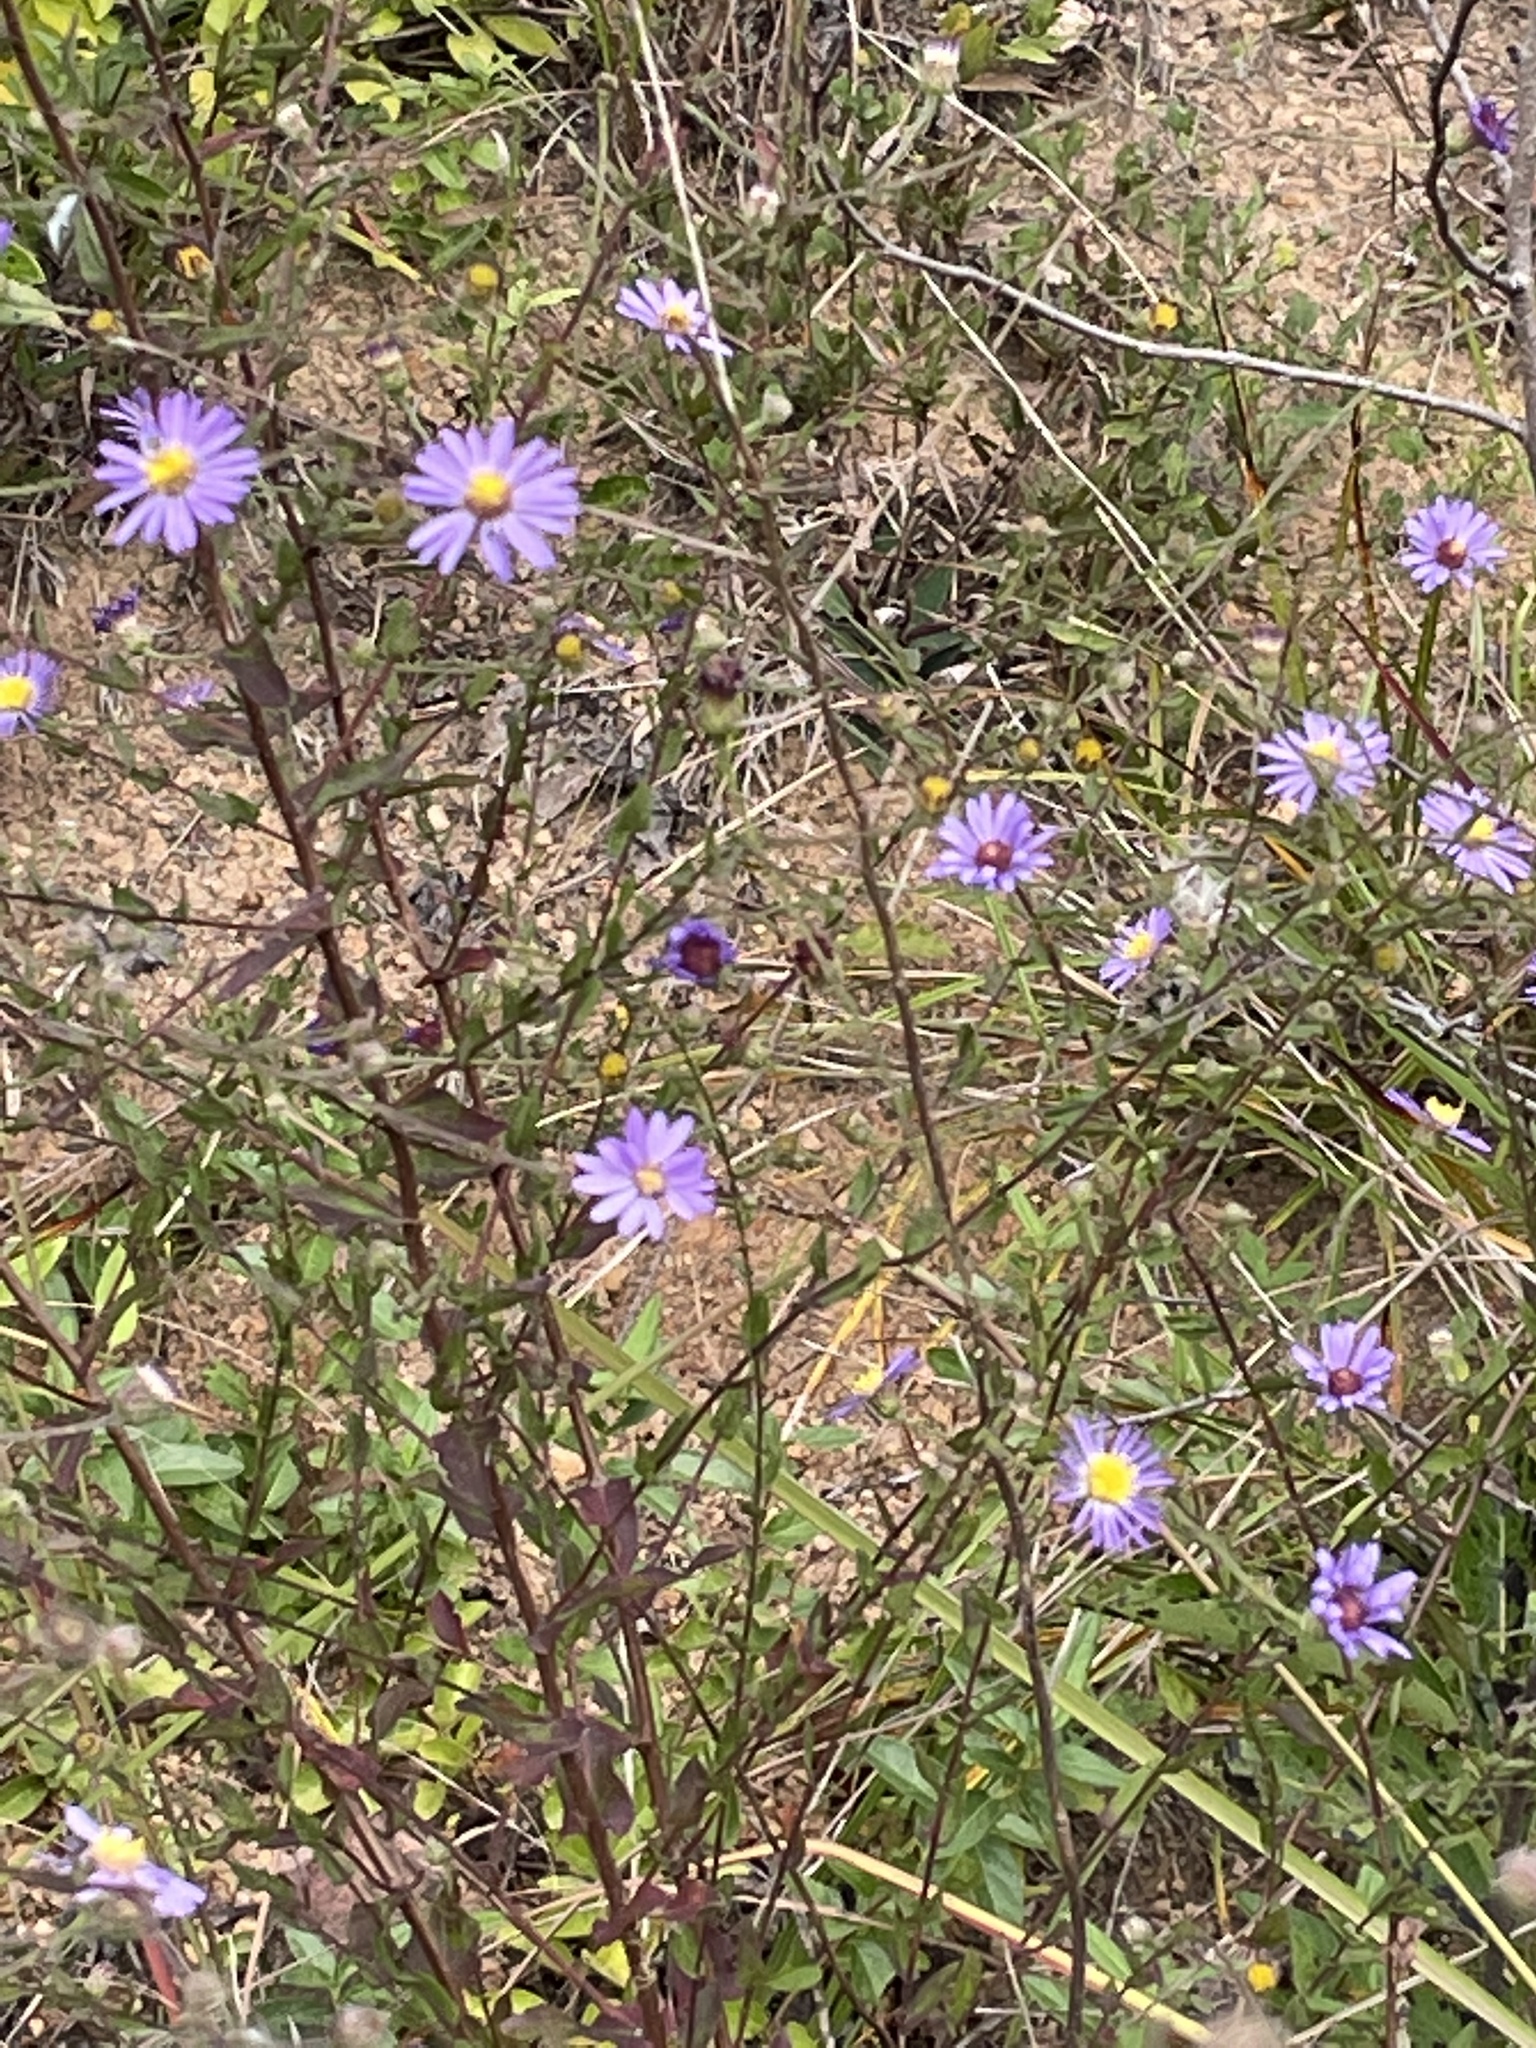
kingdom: Plantae
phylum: Tracheophyta
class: Magnoliopsida
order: Asterales
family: Asteraceae
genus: Symphyotrichum
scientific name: Symphyotrichum patens
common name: Late purple aster
